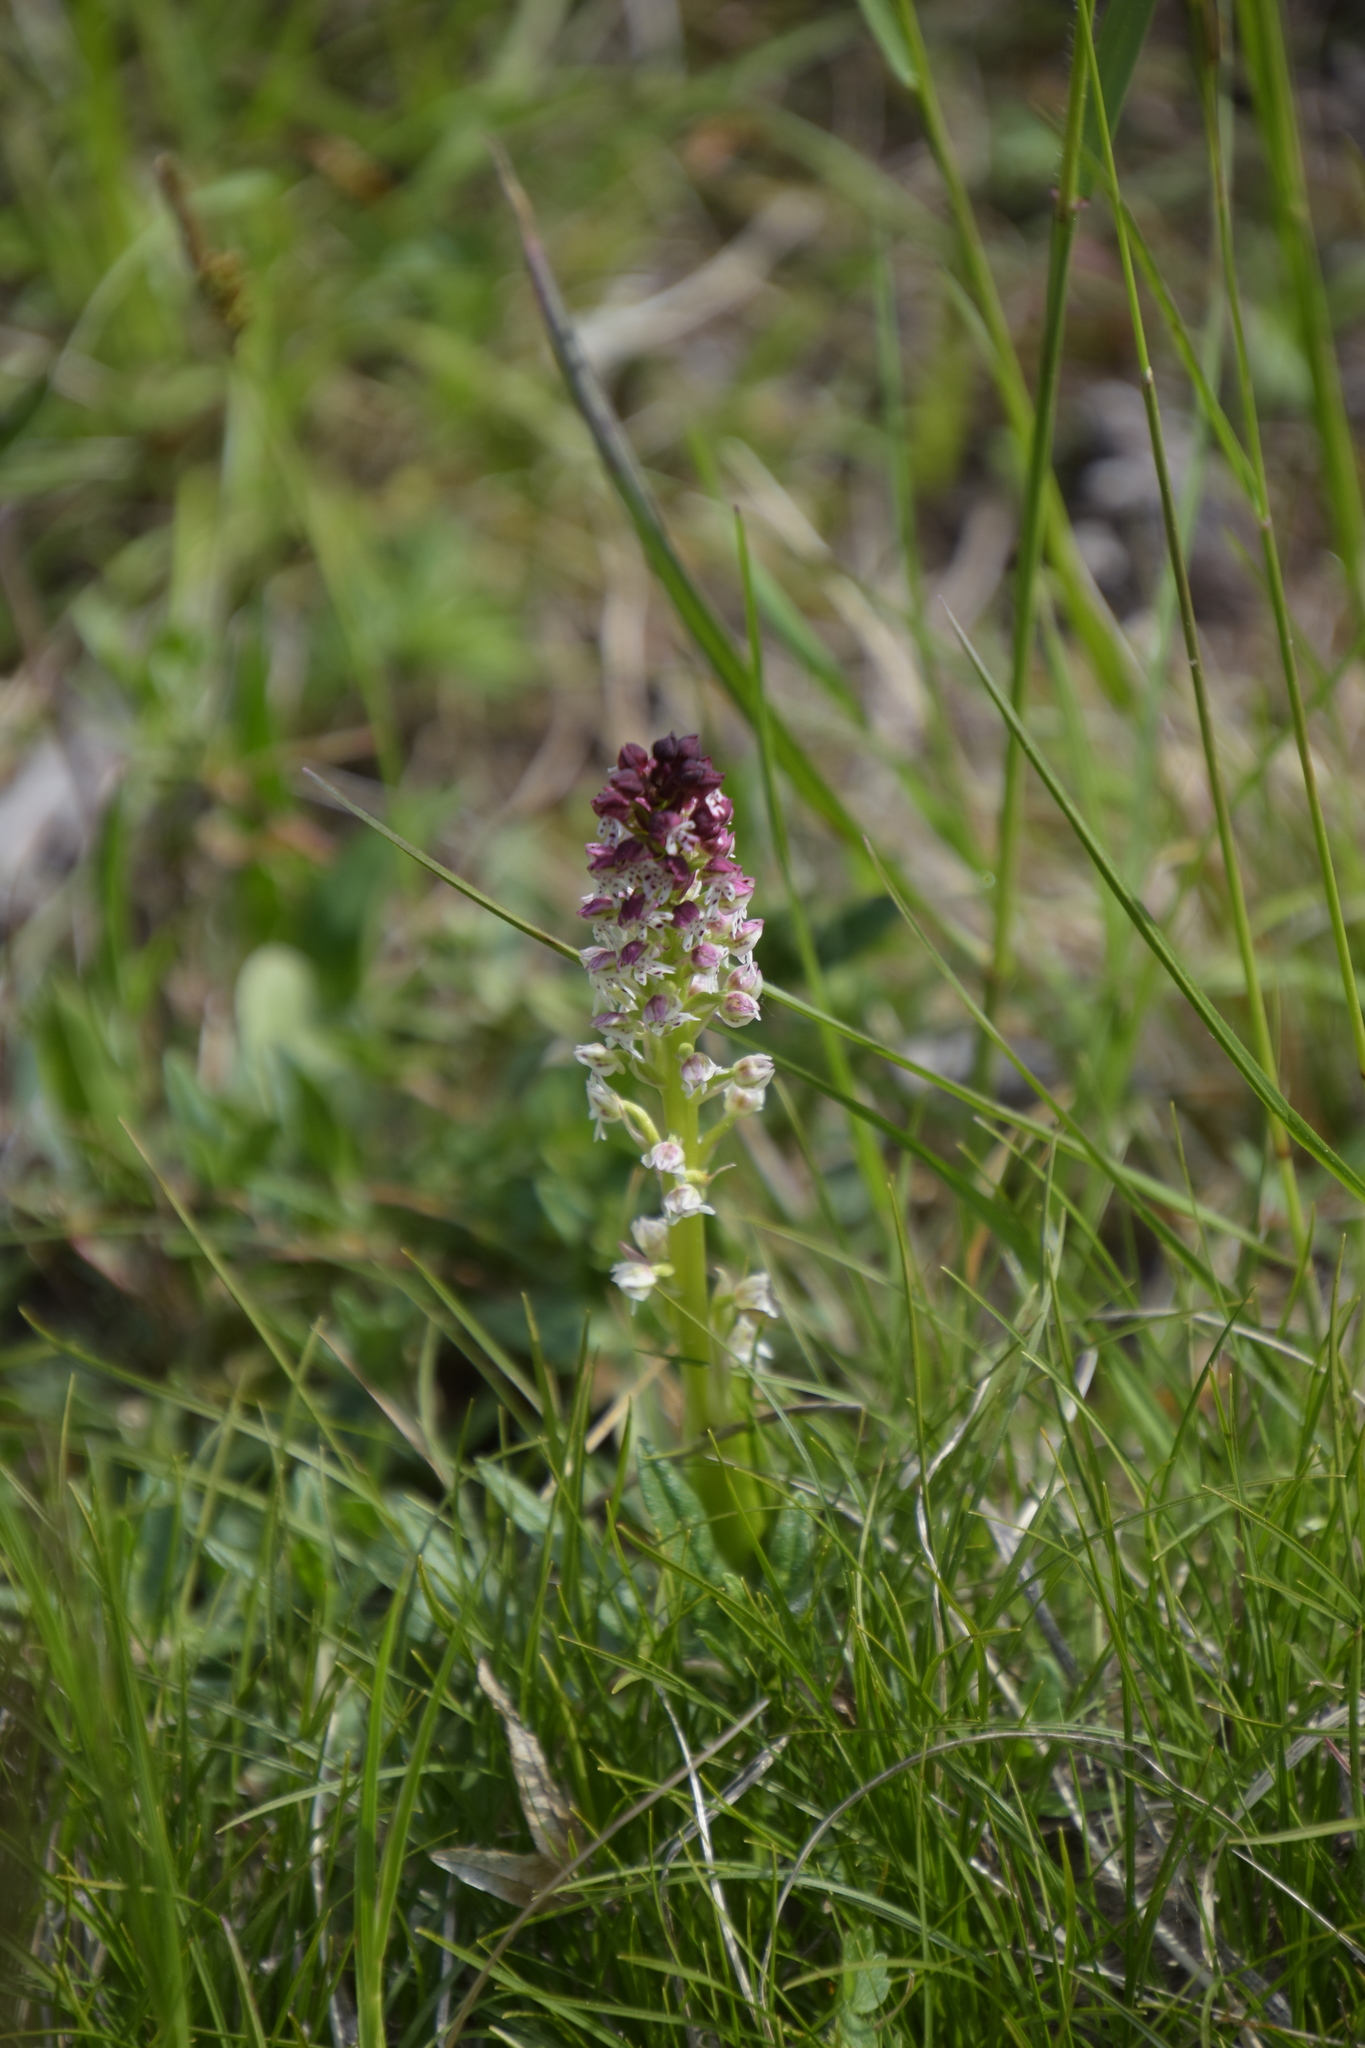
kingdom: Plantae
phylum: Tracheophyta
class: Liliopsida
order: Asparagales
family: Orchidaceae
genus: Neotinea
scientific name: Neotinea ustulata
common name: Burnt orchid
